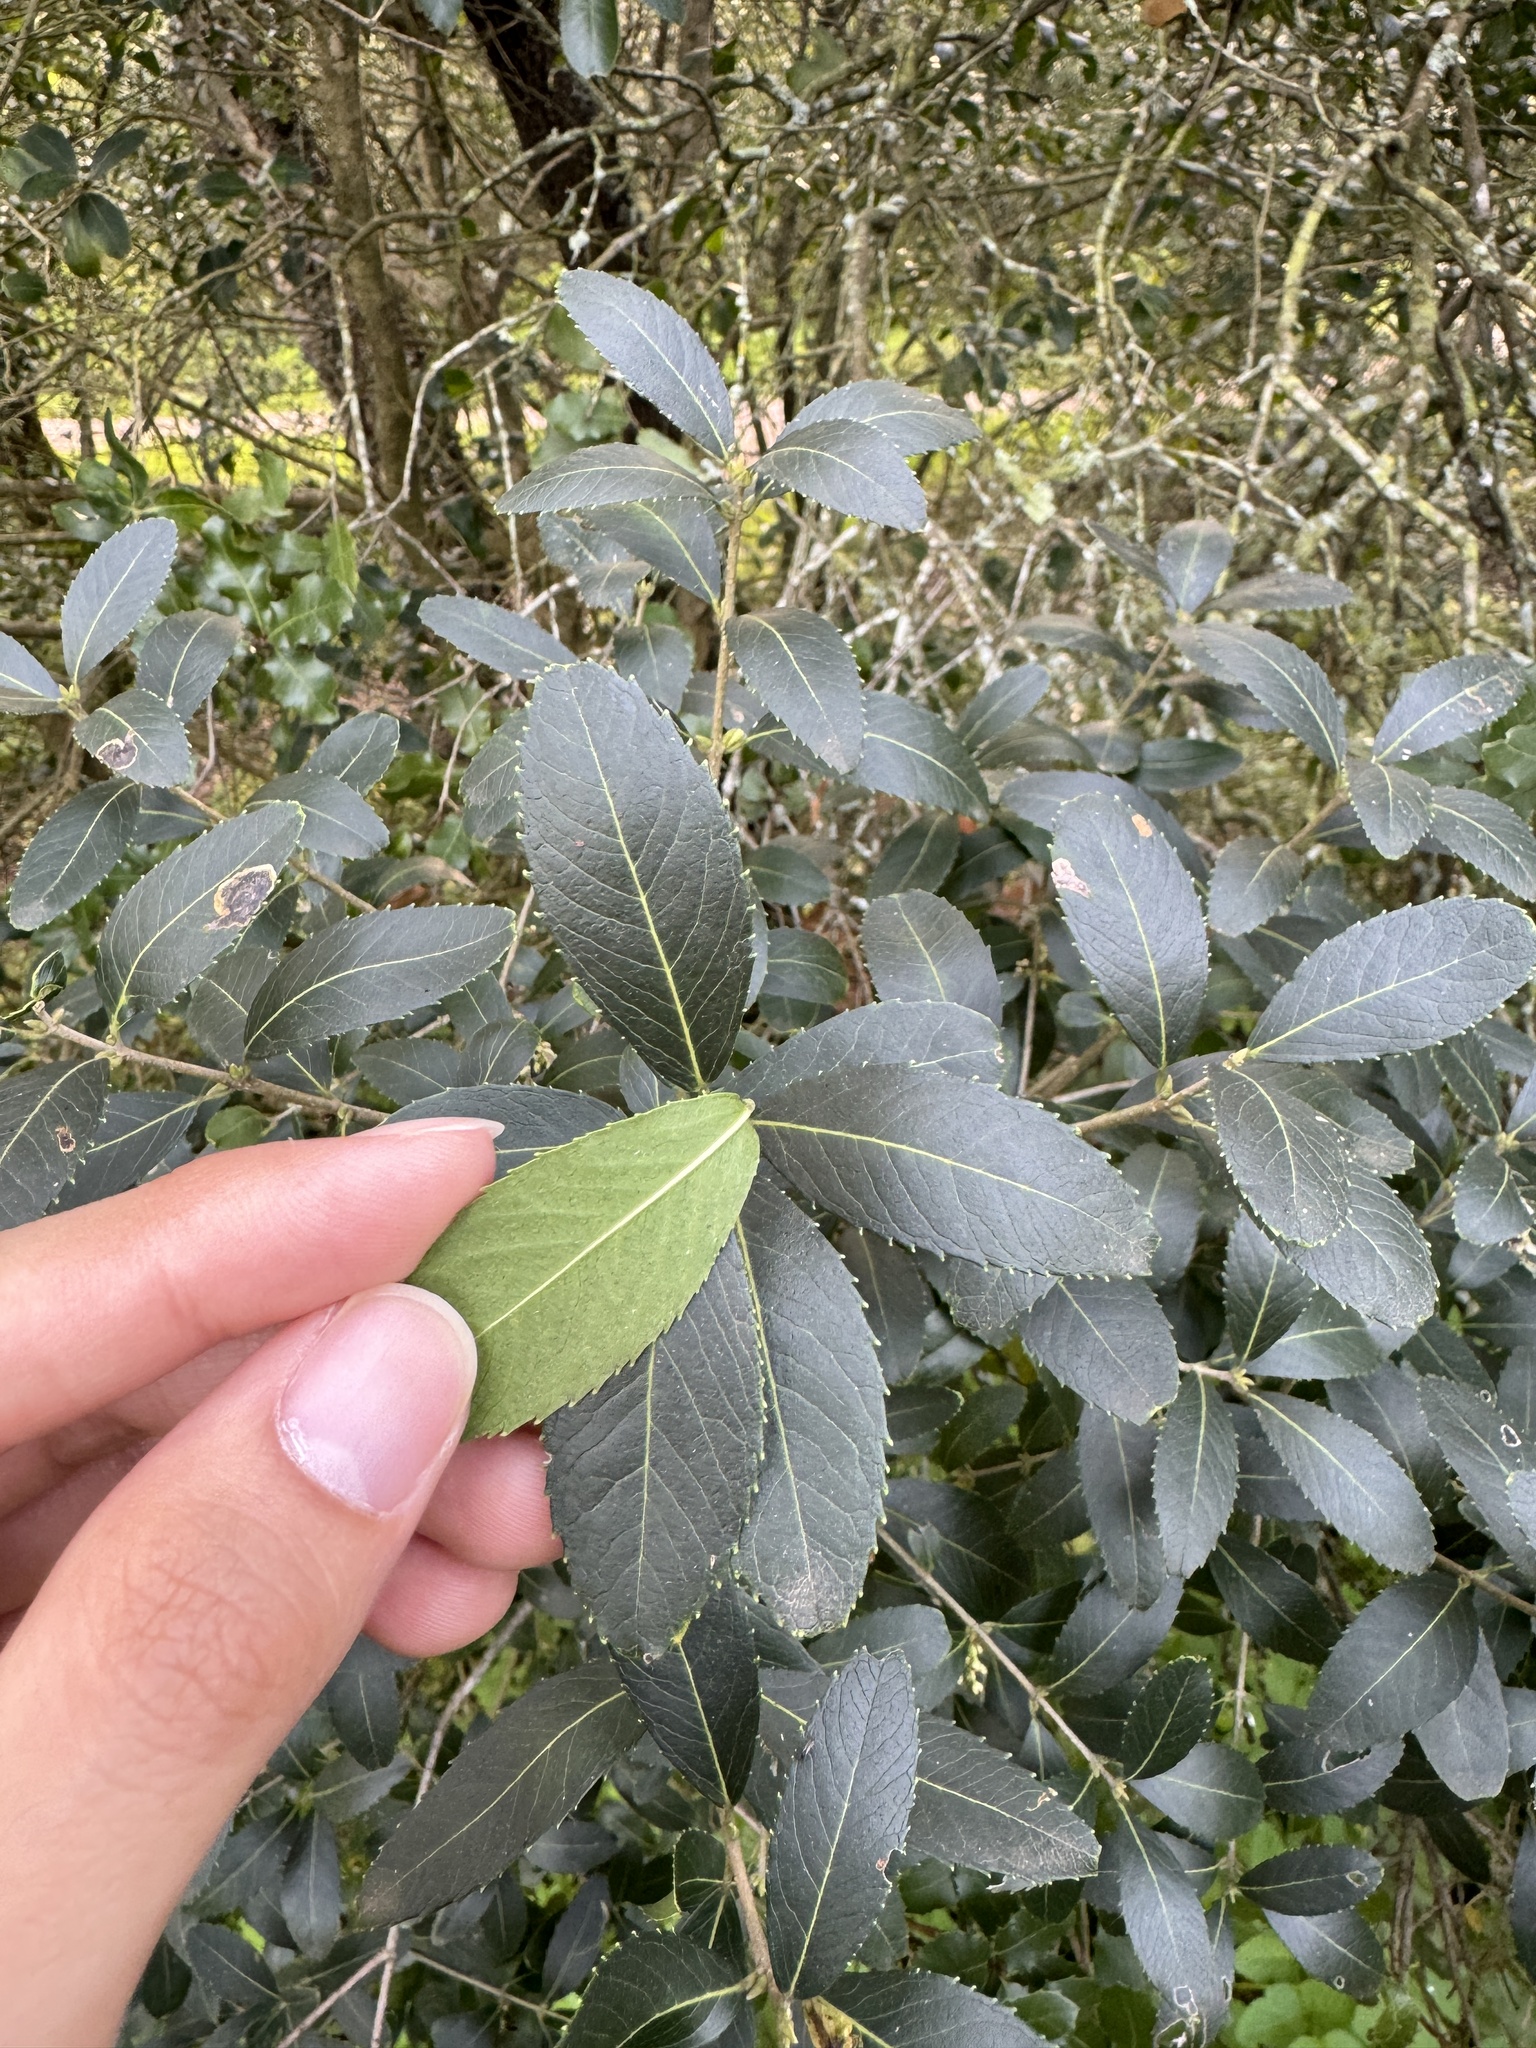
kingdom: Plantae
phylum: Tracheophyta
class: Magnoliopsida
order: Lamiales
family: Oleaceae
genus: Phillyrea
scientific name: Phillyrea latifolia
